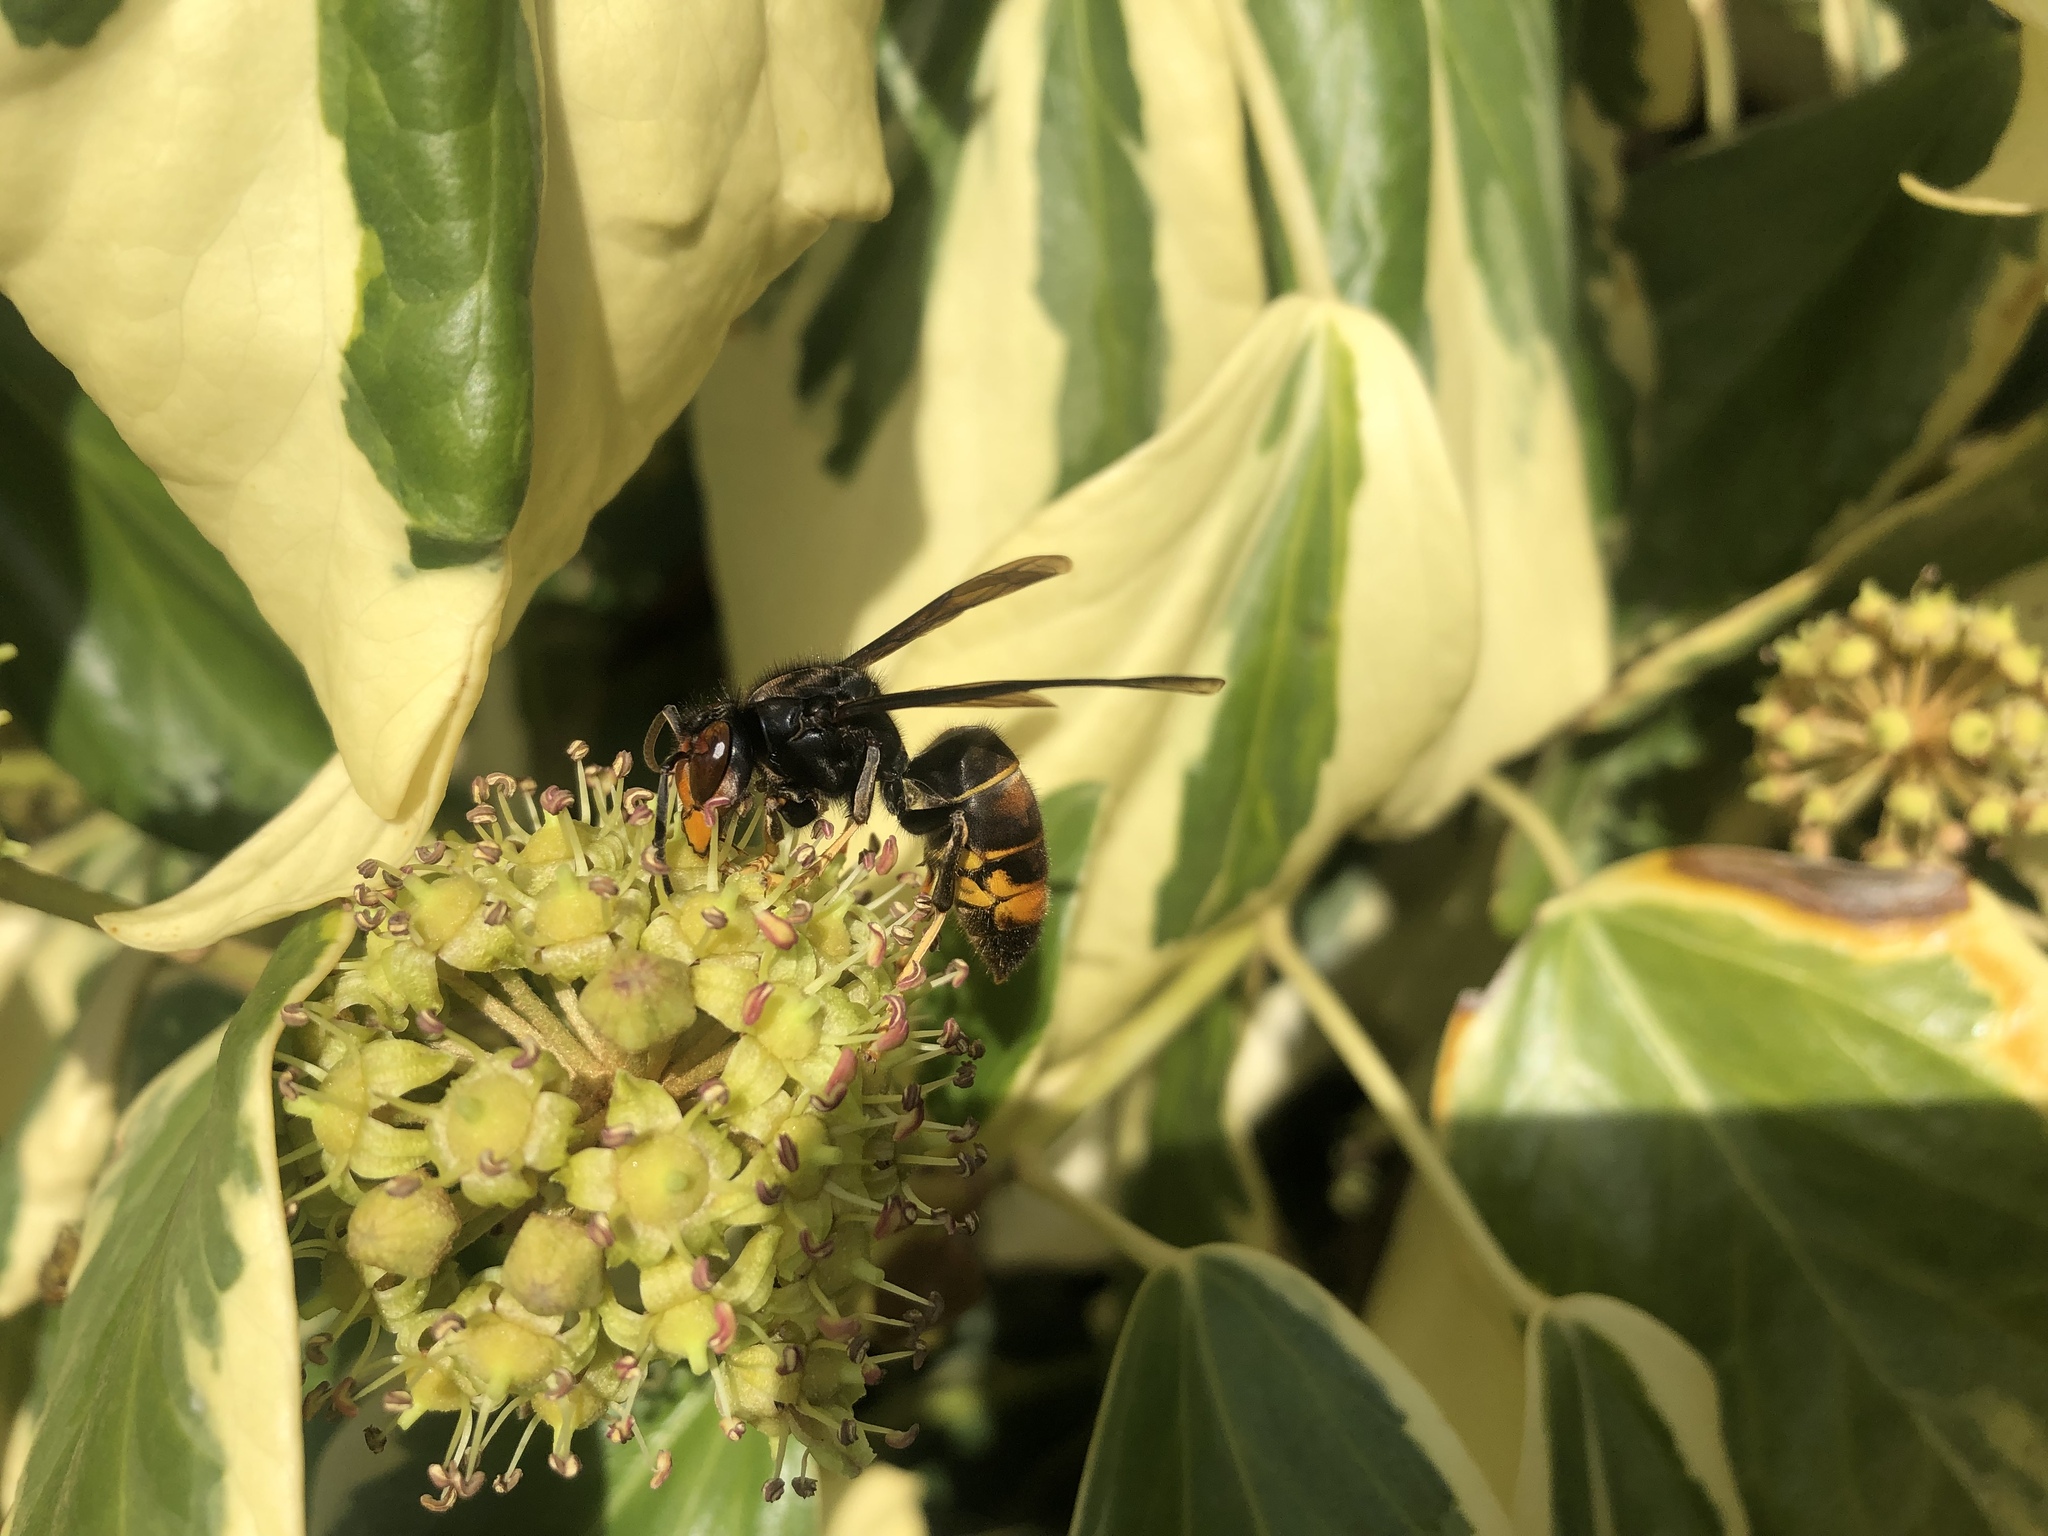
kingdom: Animalia
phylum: Arthropoda
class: Insecta
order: Hymenoptera
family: Vespidae
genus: Vespa
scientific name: Vespa velutina
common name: Asian hornet
